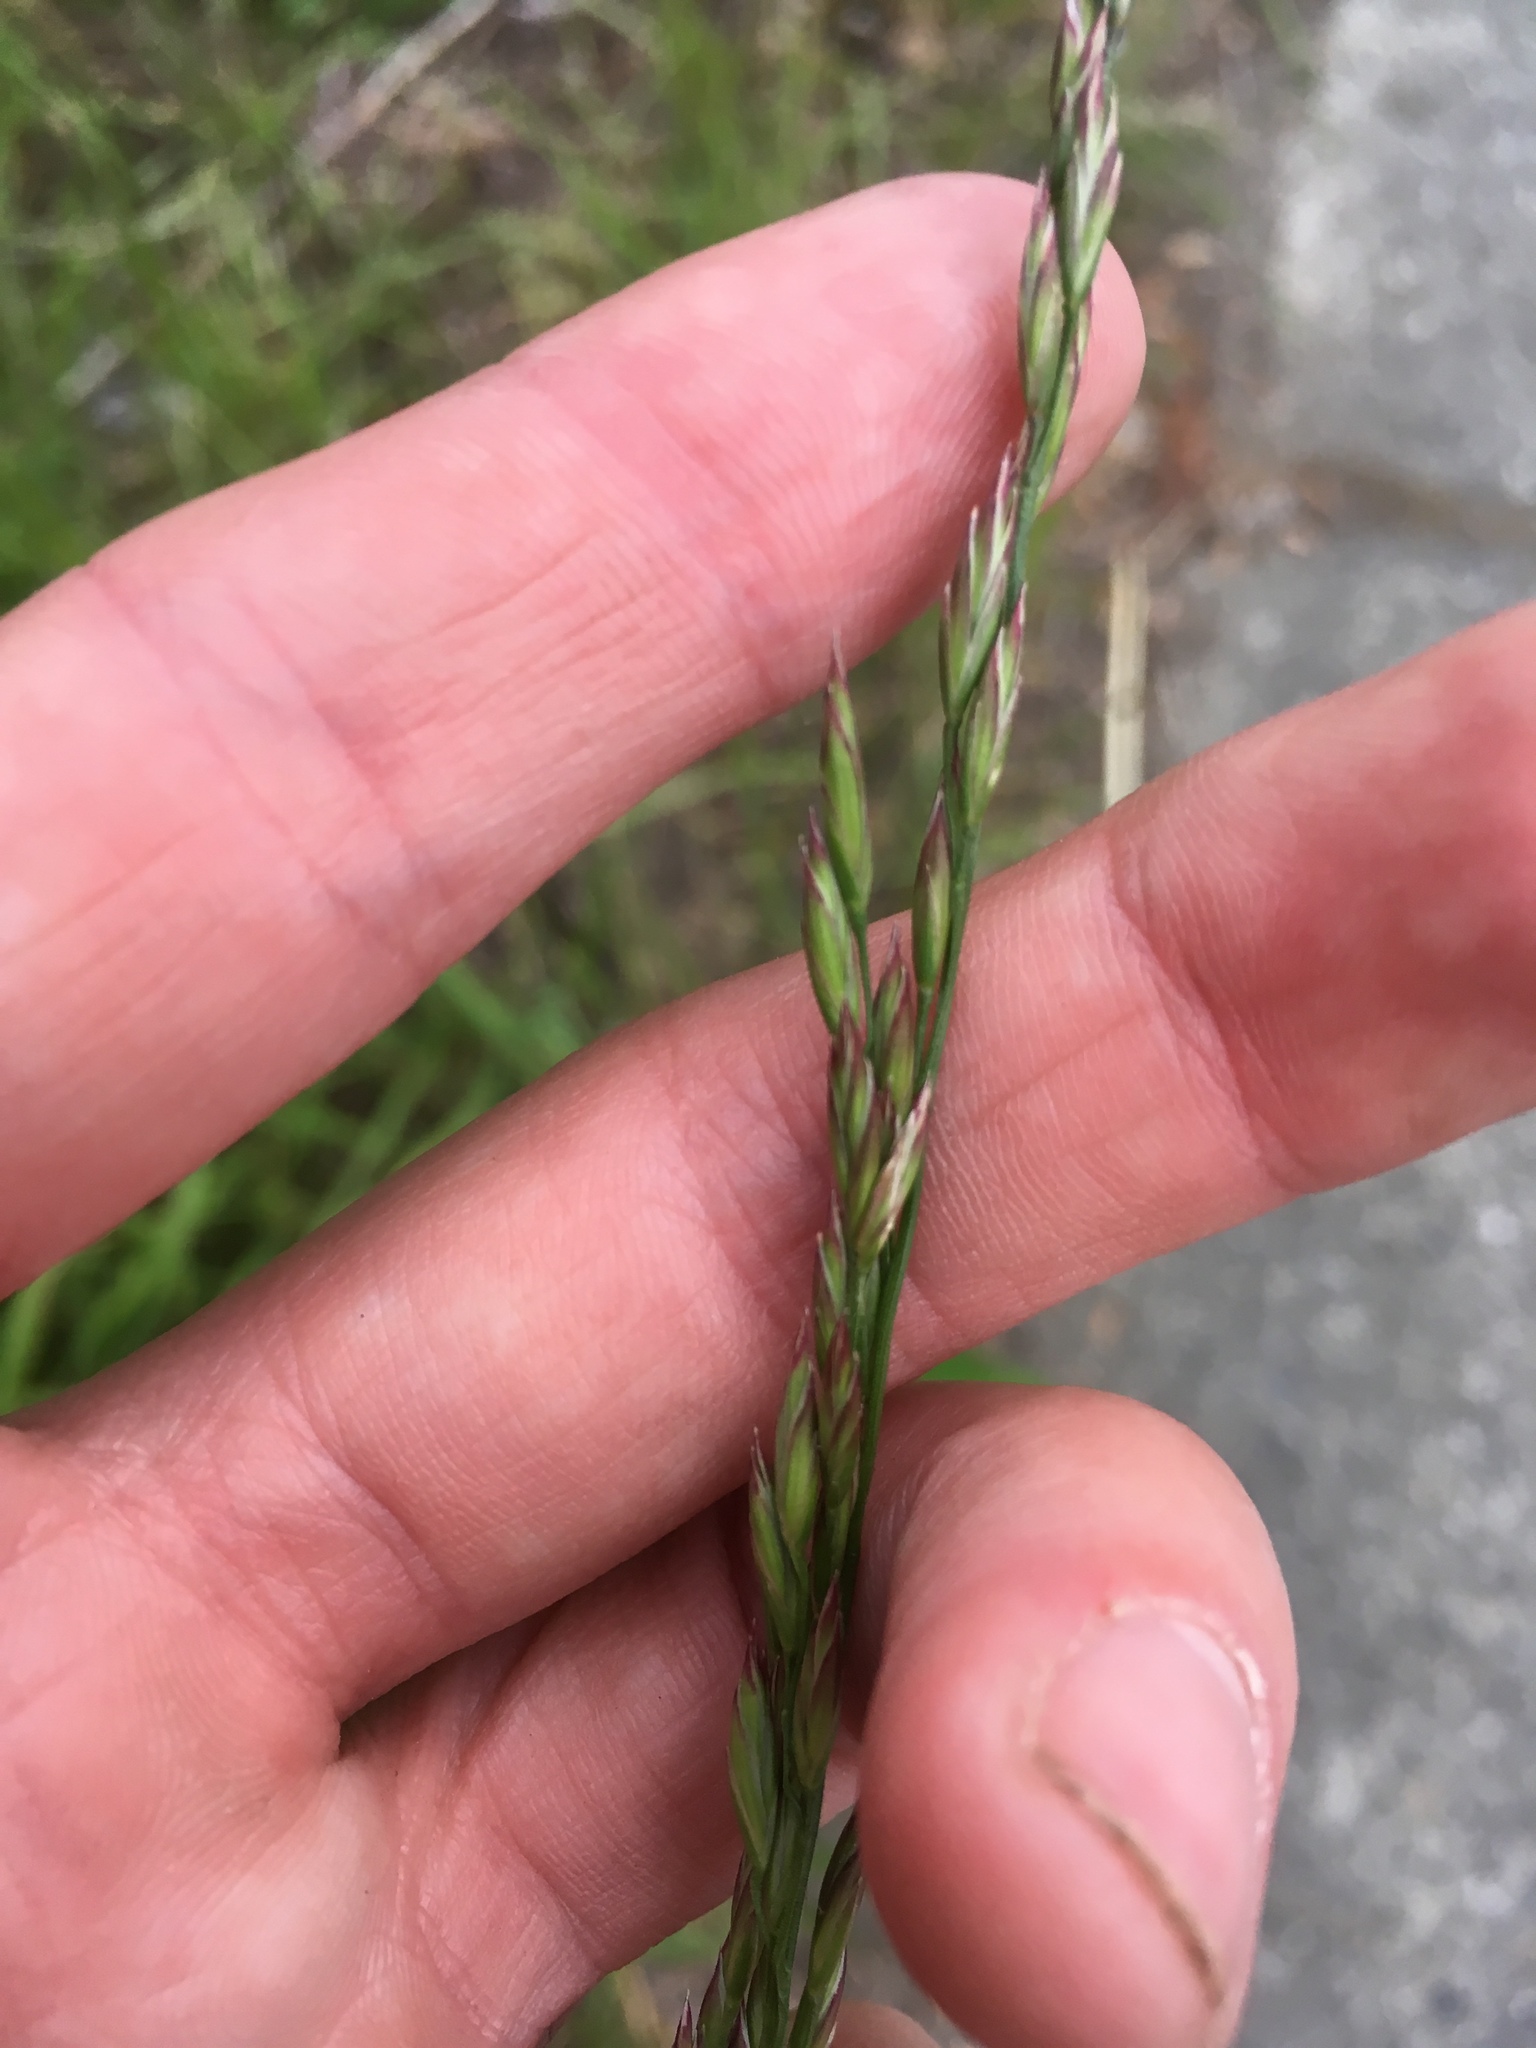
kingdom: Plantae
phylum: Tracheophyta
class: Liliopsida
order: Poales
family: Poaceae
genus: Lolium
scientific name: Lolium arundinaceum
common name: Reed fescue
